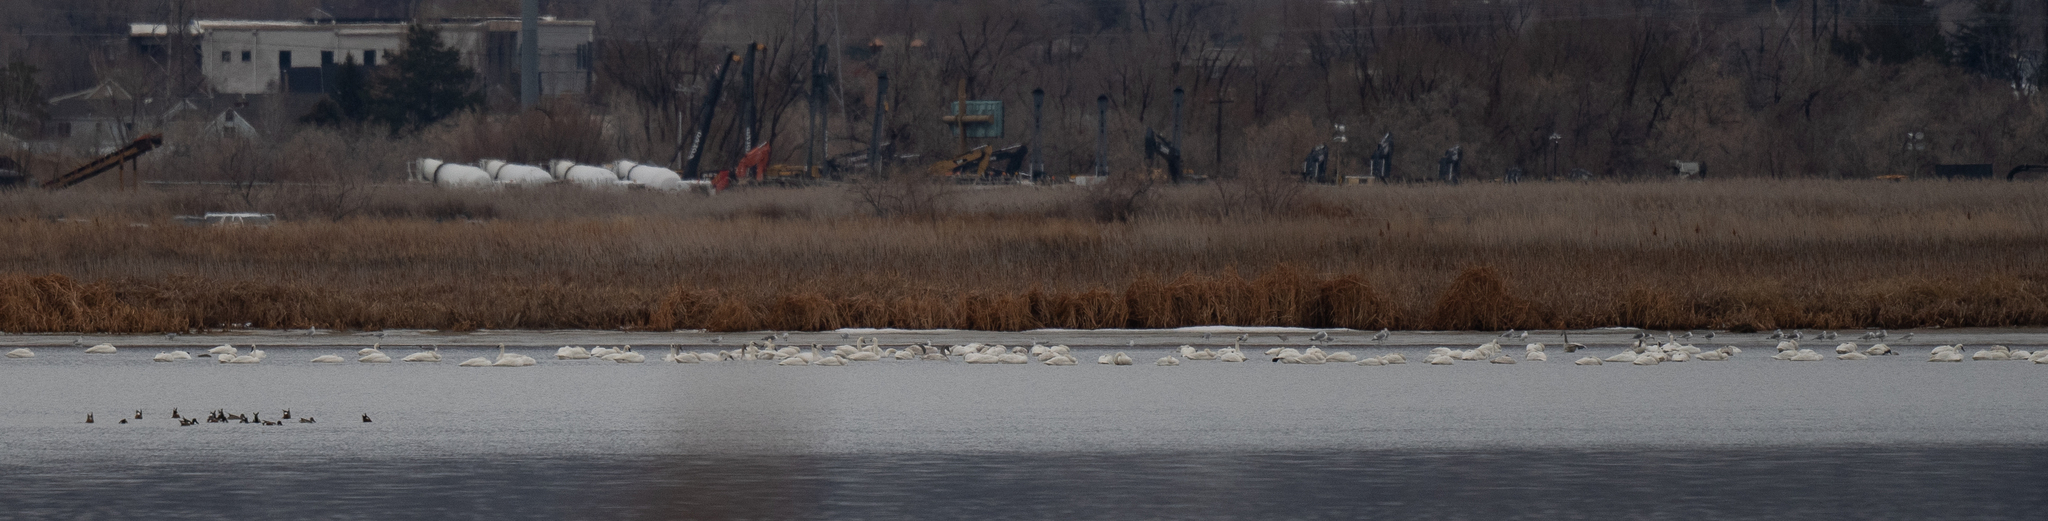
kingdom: Animalia
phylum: Chordata
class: Aves
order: Anseriformes
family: Anatidae
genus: Cygnus
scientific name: Cygnus columbianus
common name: Tundra swan
